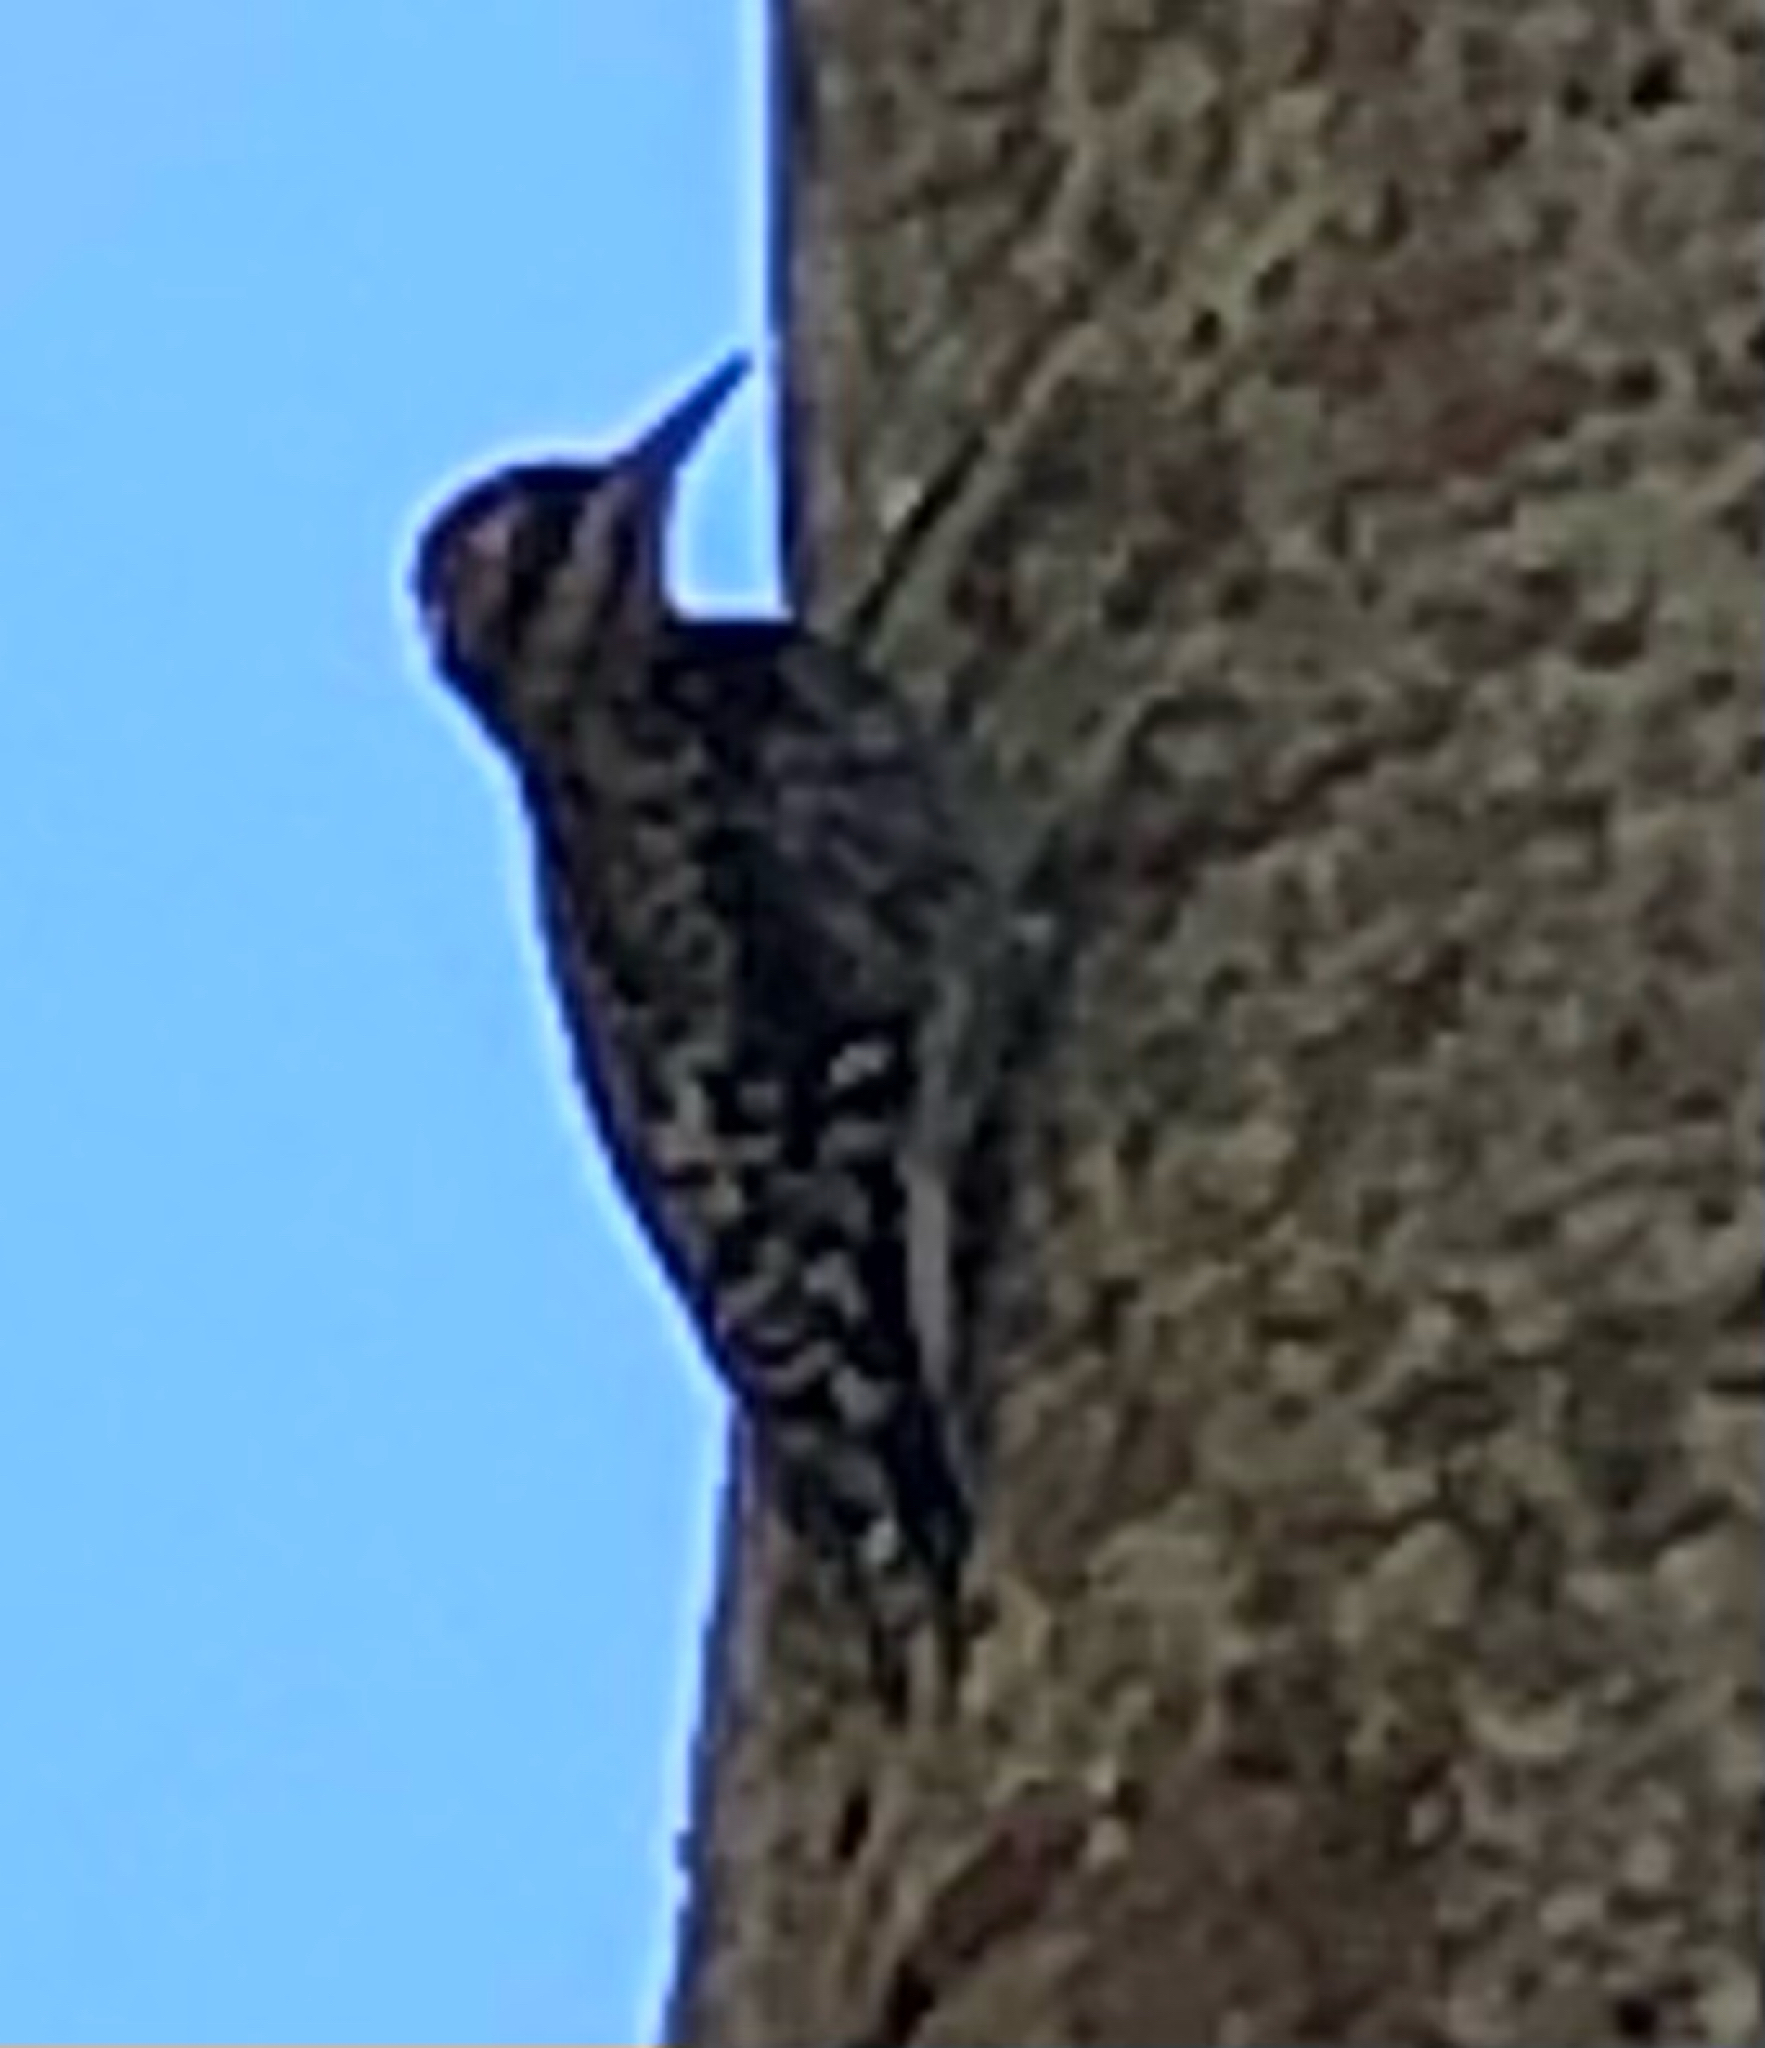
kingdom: Animalia
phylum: Chordata
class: Aves
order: Piciformes
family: Picidae
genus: Sphyrapicus
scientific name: Sphyrapicus varius
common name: Yellow-bellied sapsucker
